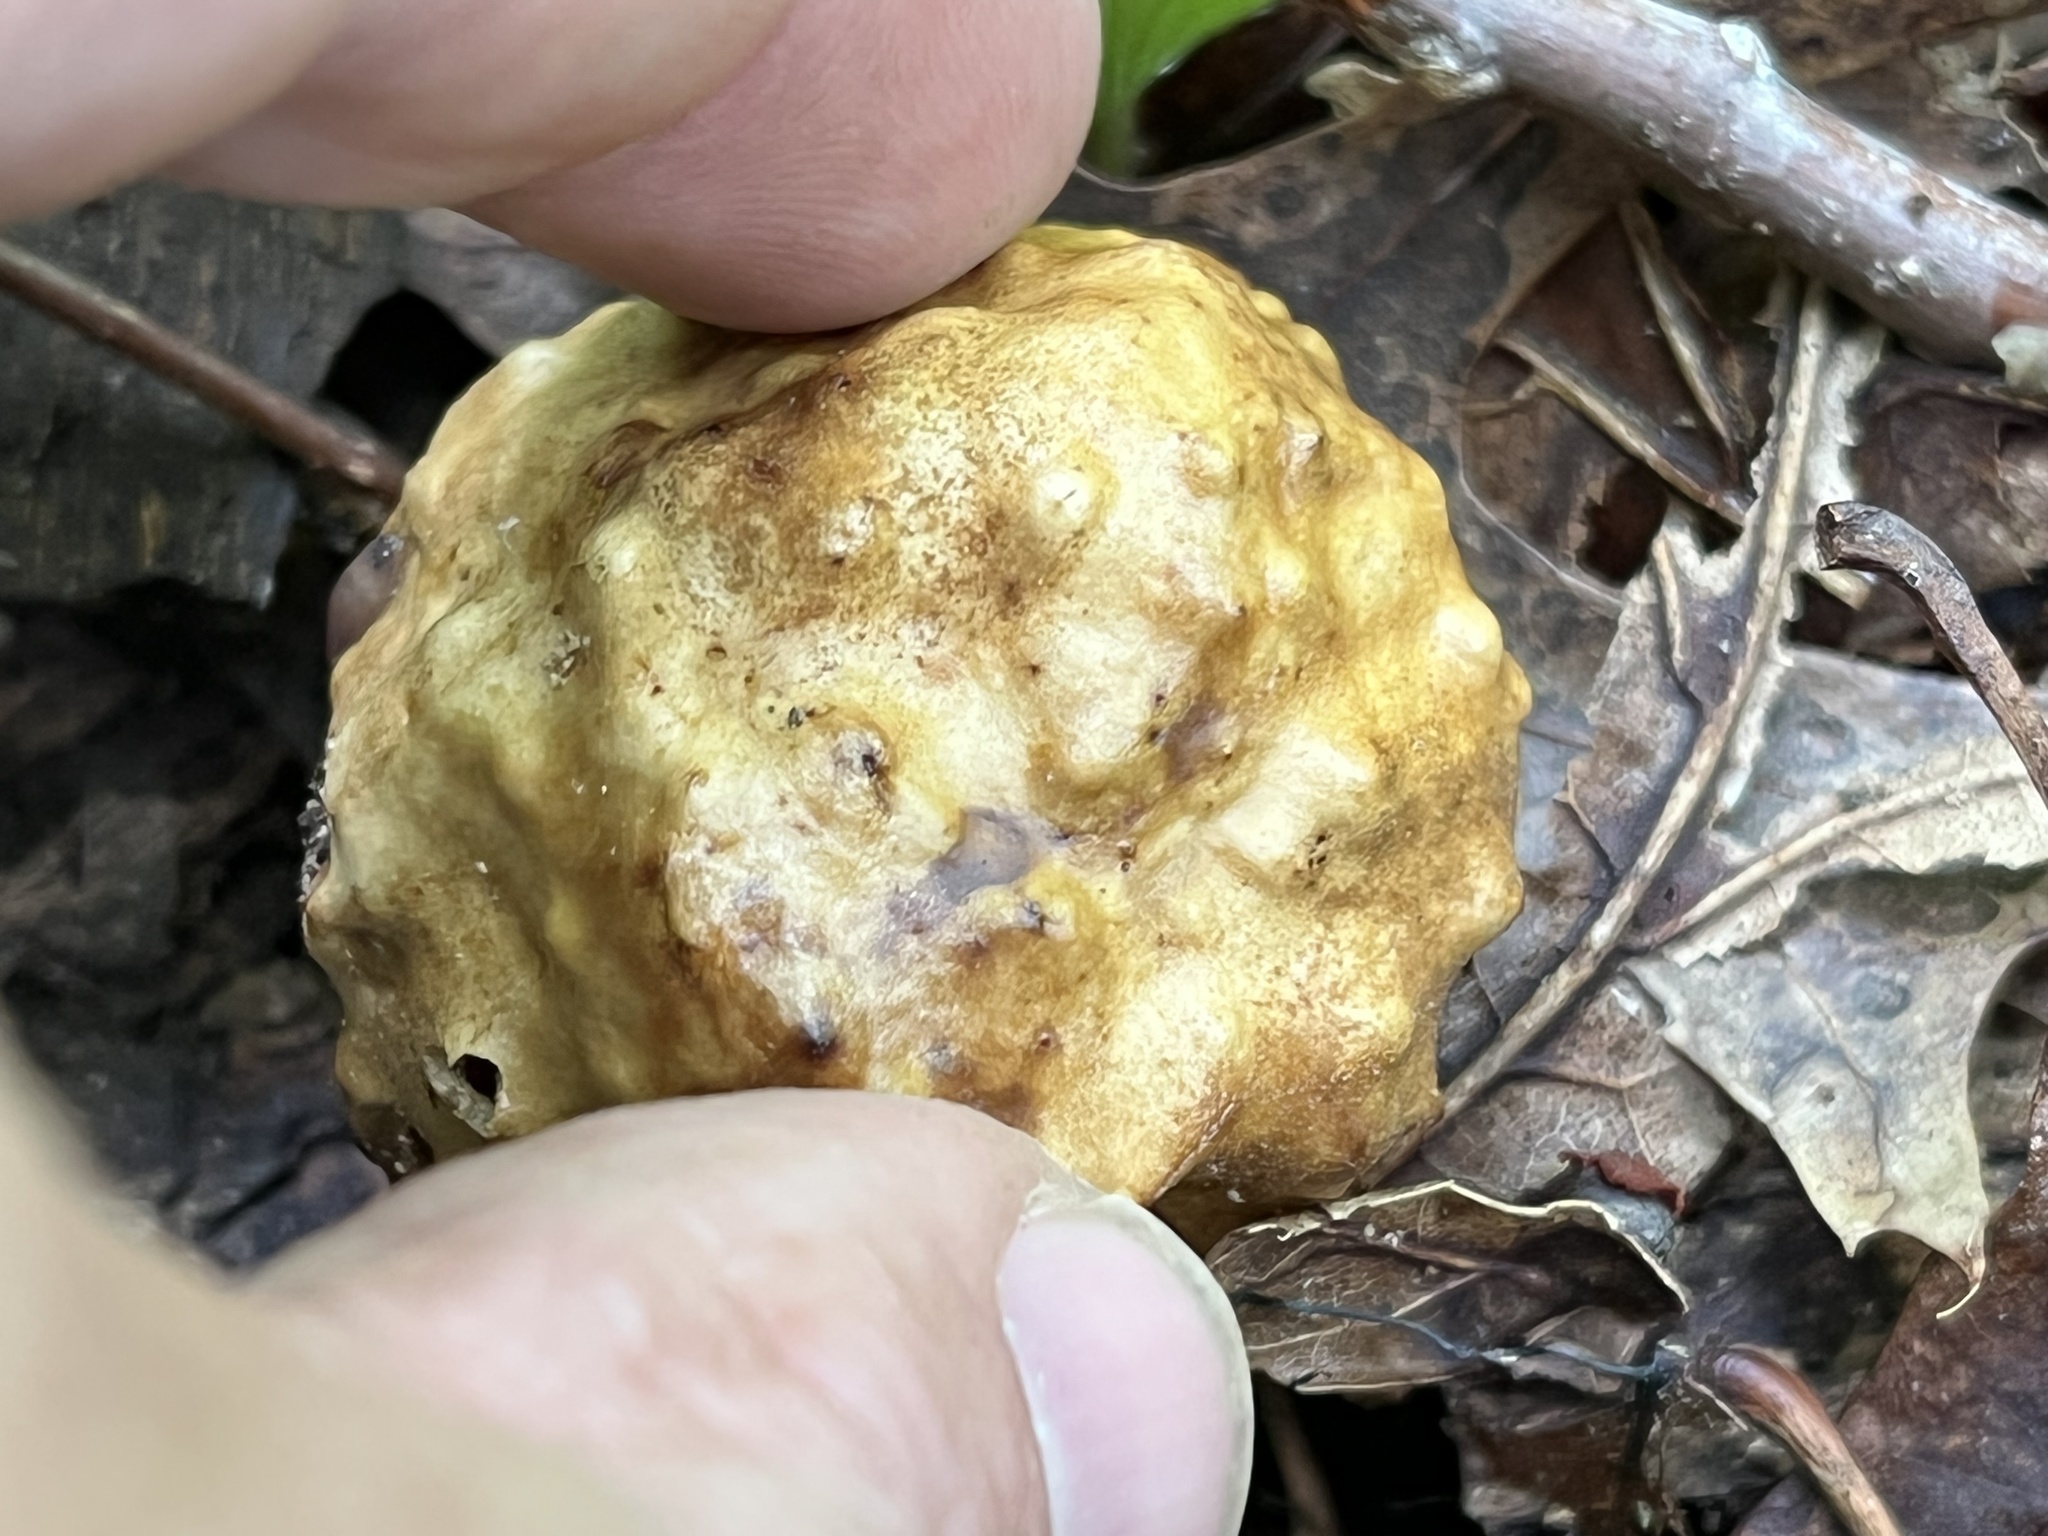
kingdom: Animalia
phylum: Arthropoda
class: Insecta
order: Hymenoptera
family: Cynipidae
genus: Amphibolips
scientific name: Amphibolips
